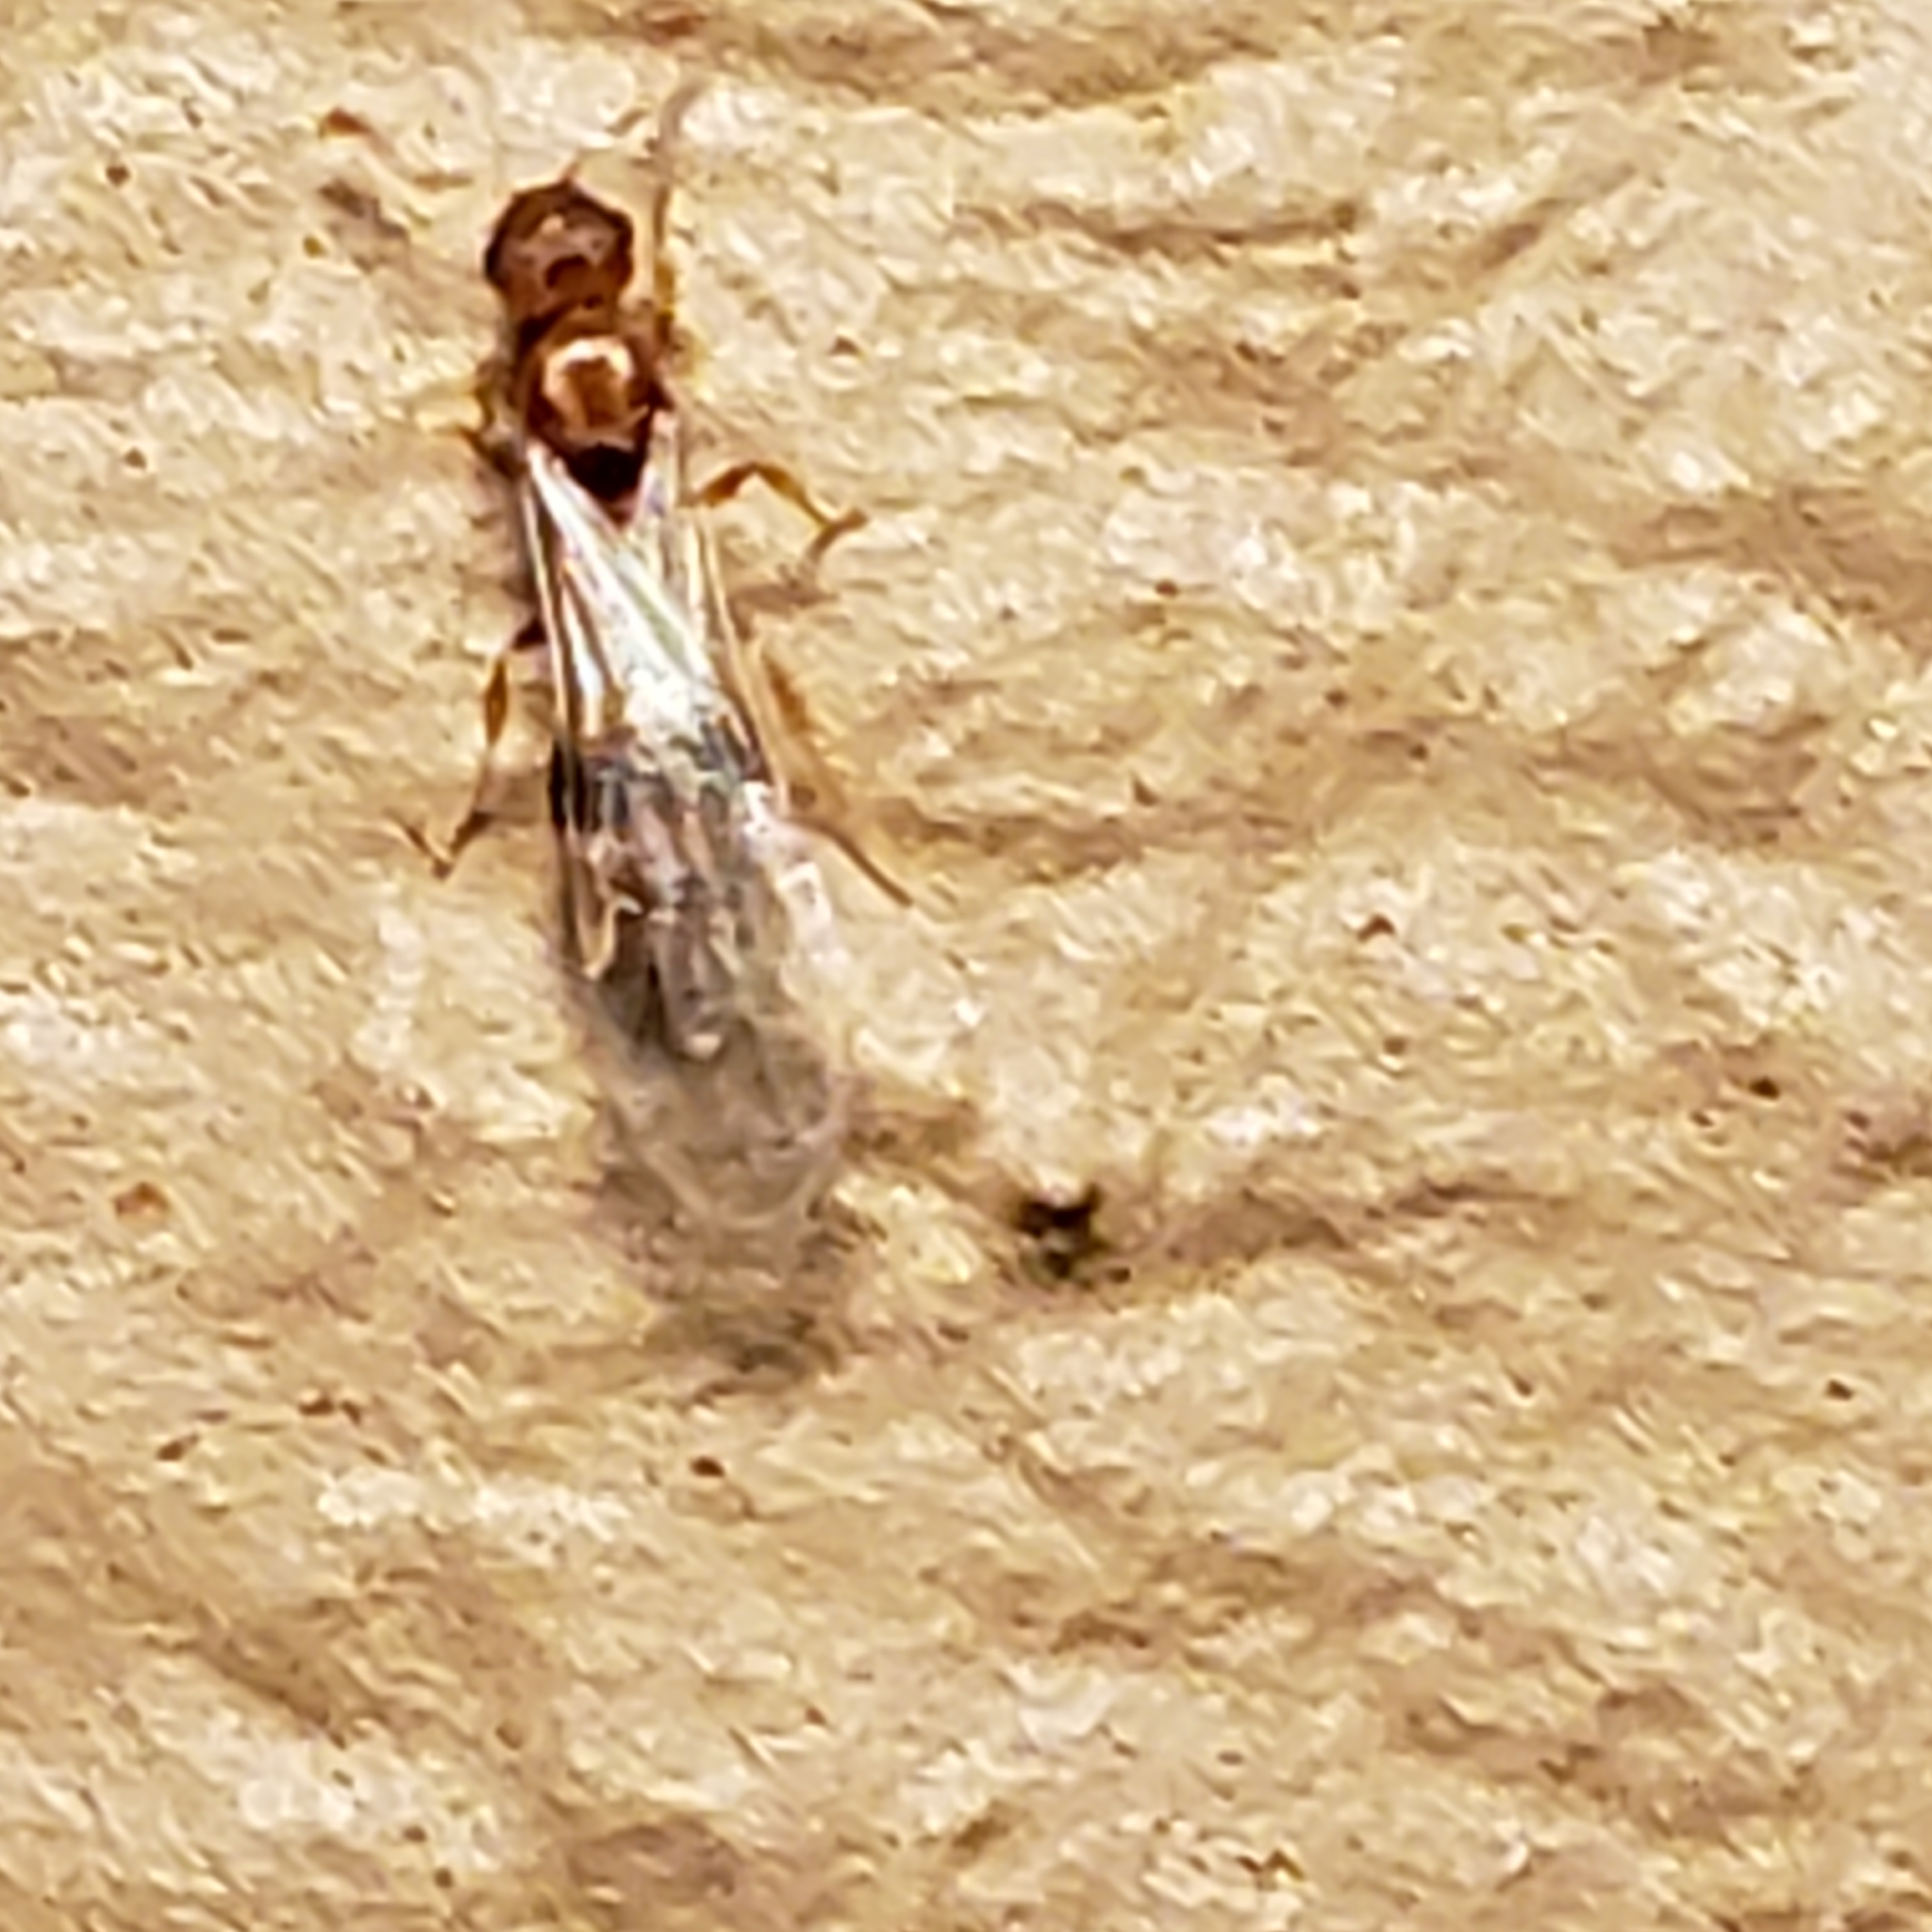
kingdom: Animalia
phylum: Arthropoda
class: Insecta
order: Hymenoptera
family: Formicidae
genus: Temnothorax
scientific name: Temnothorax curvispinosus
